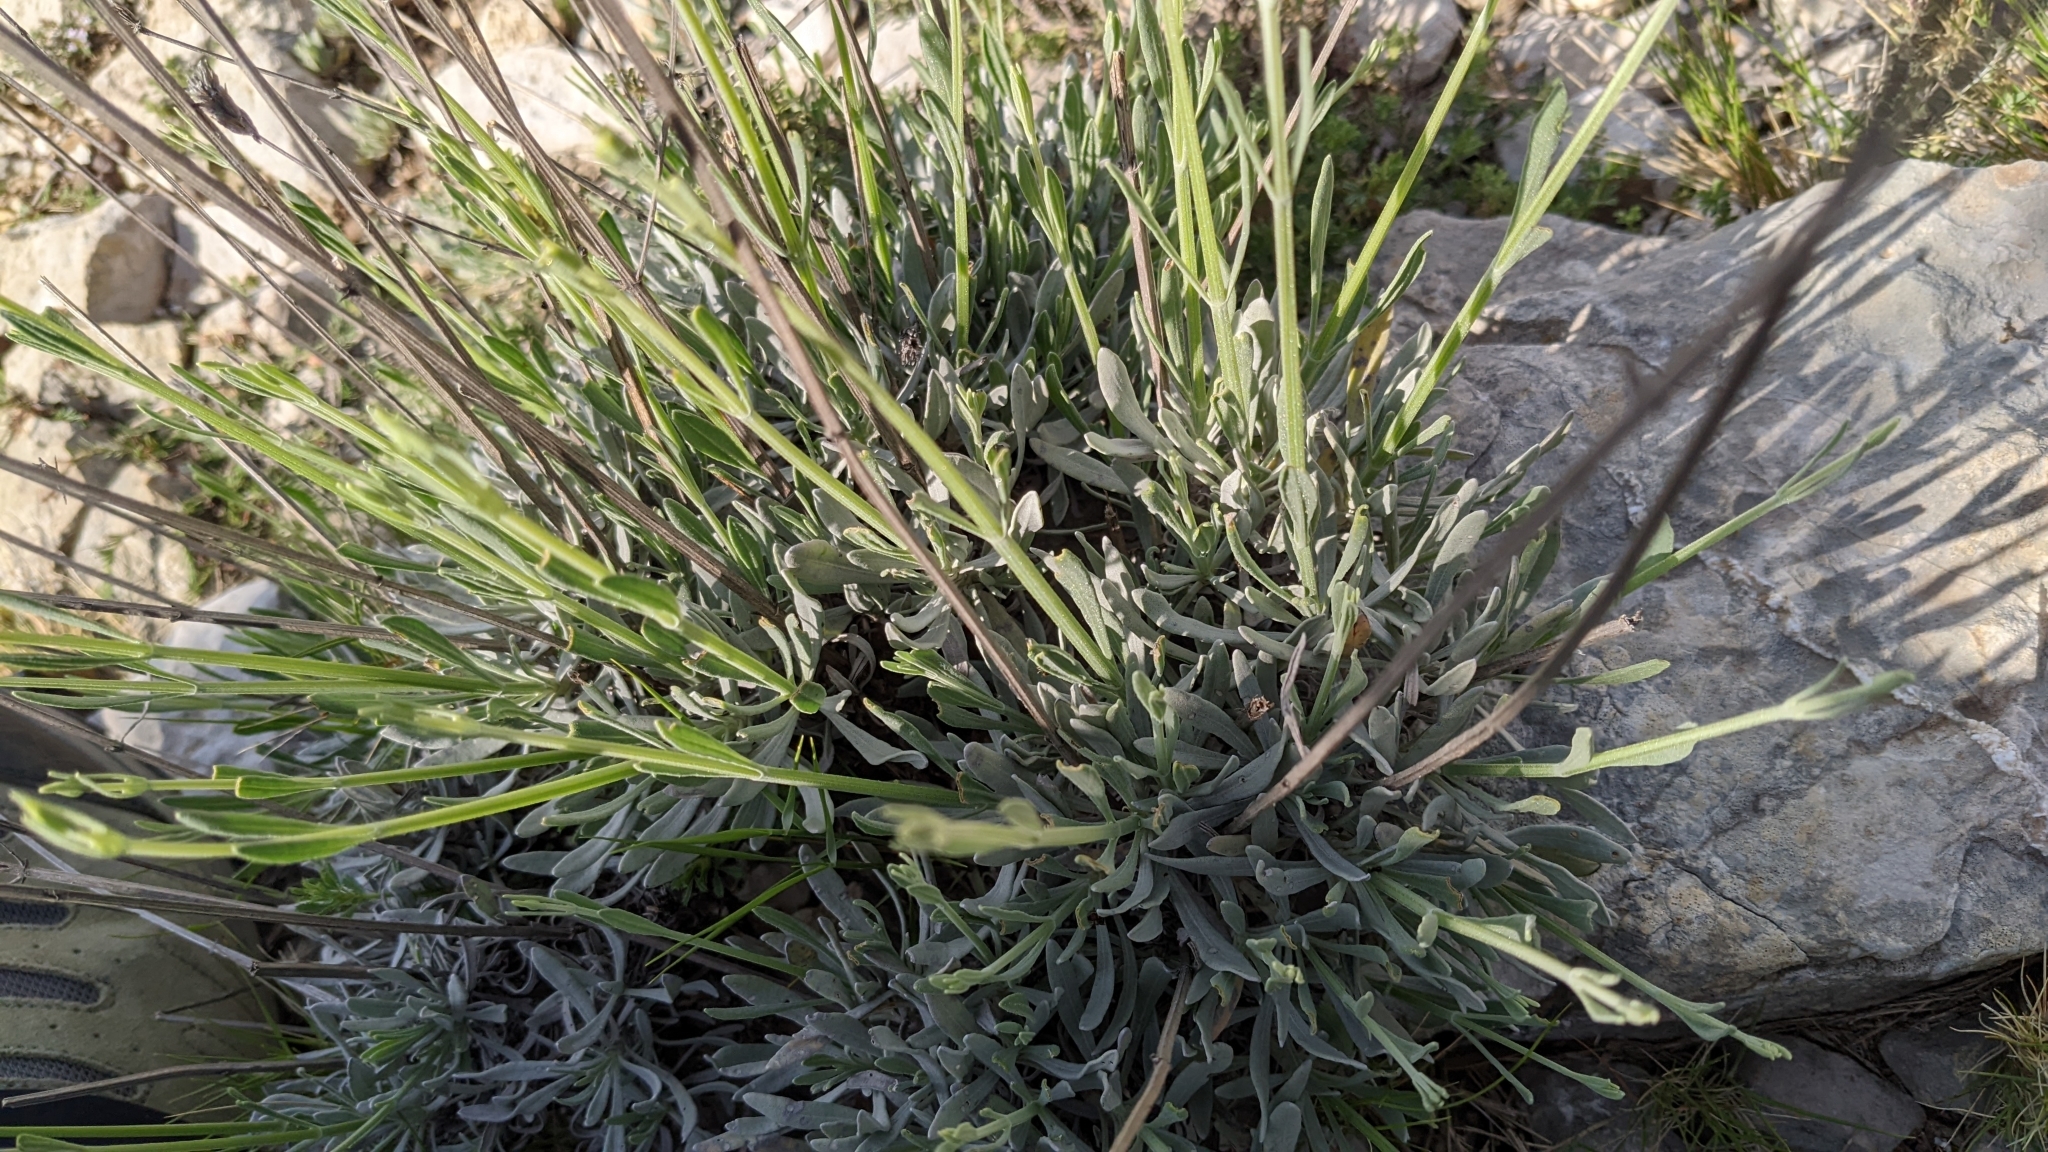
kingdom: Plantae
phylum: Tracheophyta
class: Magnoliopsida
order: Lamiales
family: Lamiaceae
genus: Lavandula
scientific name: Lavandula latifolia
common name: Spike lavendar
